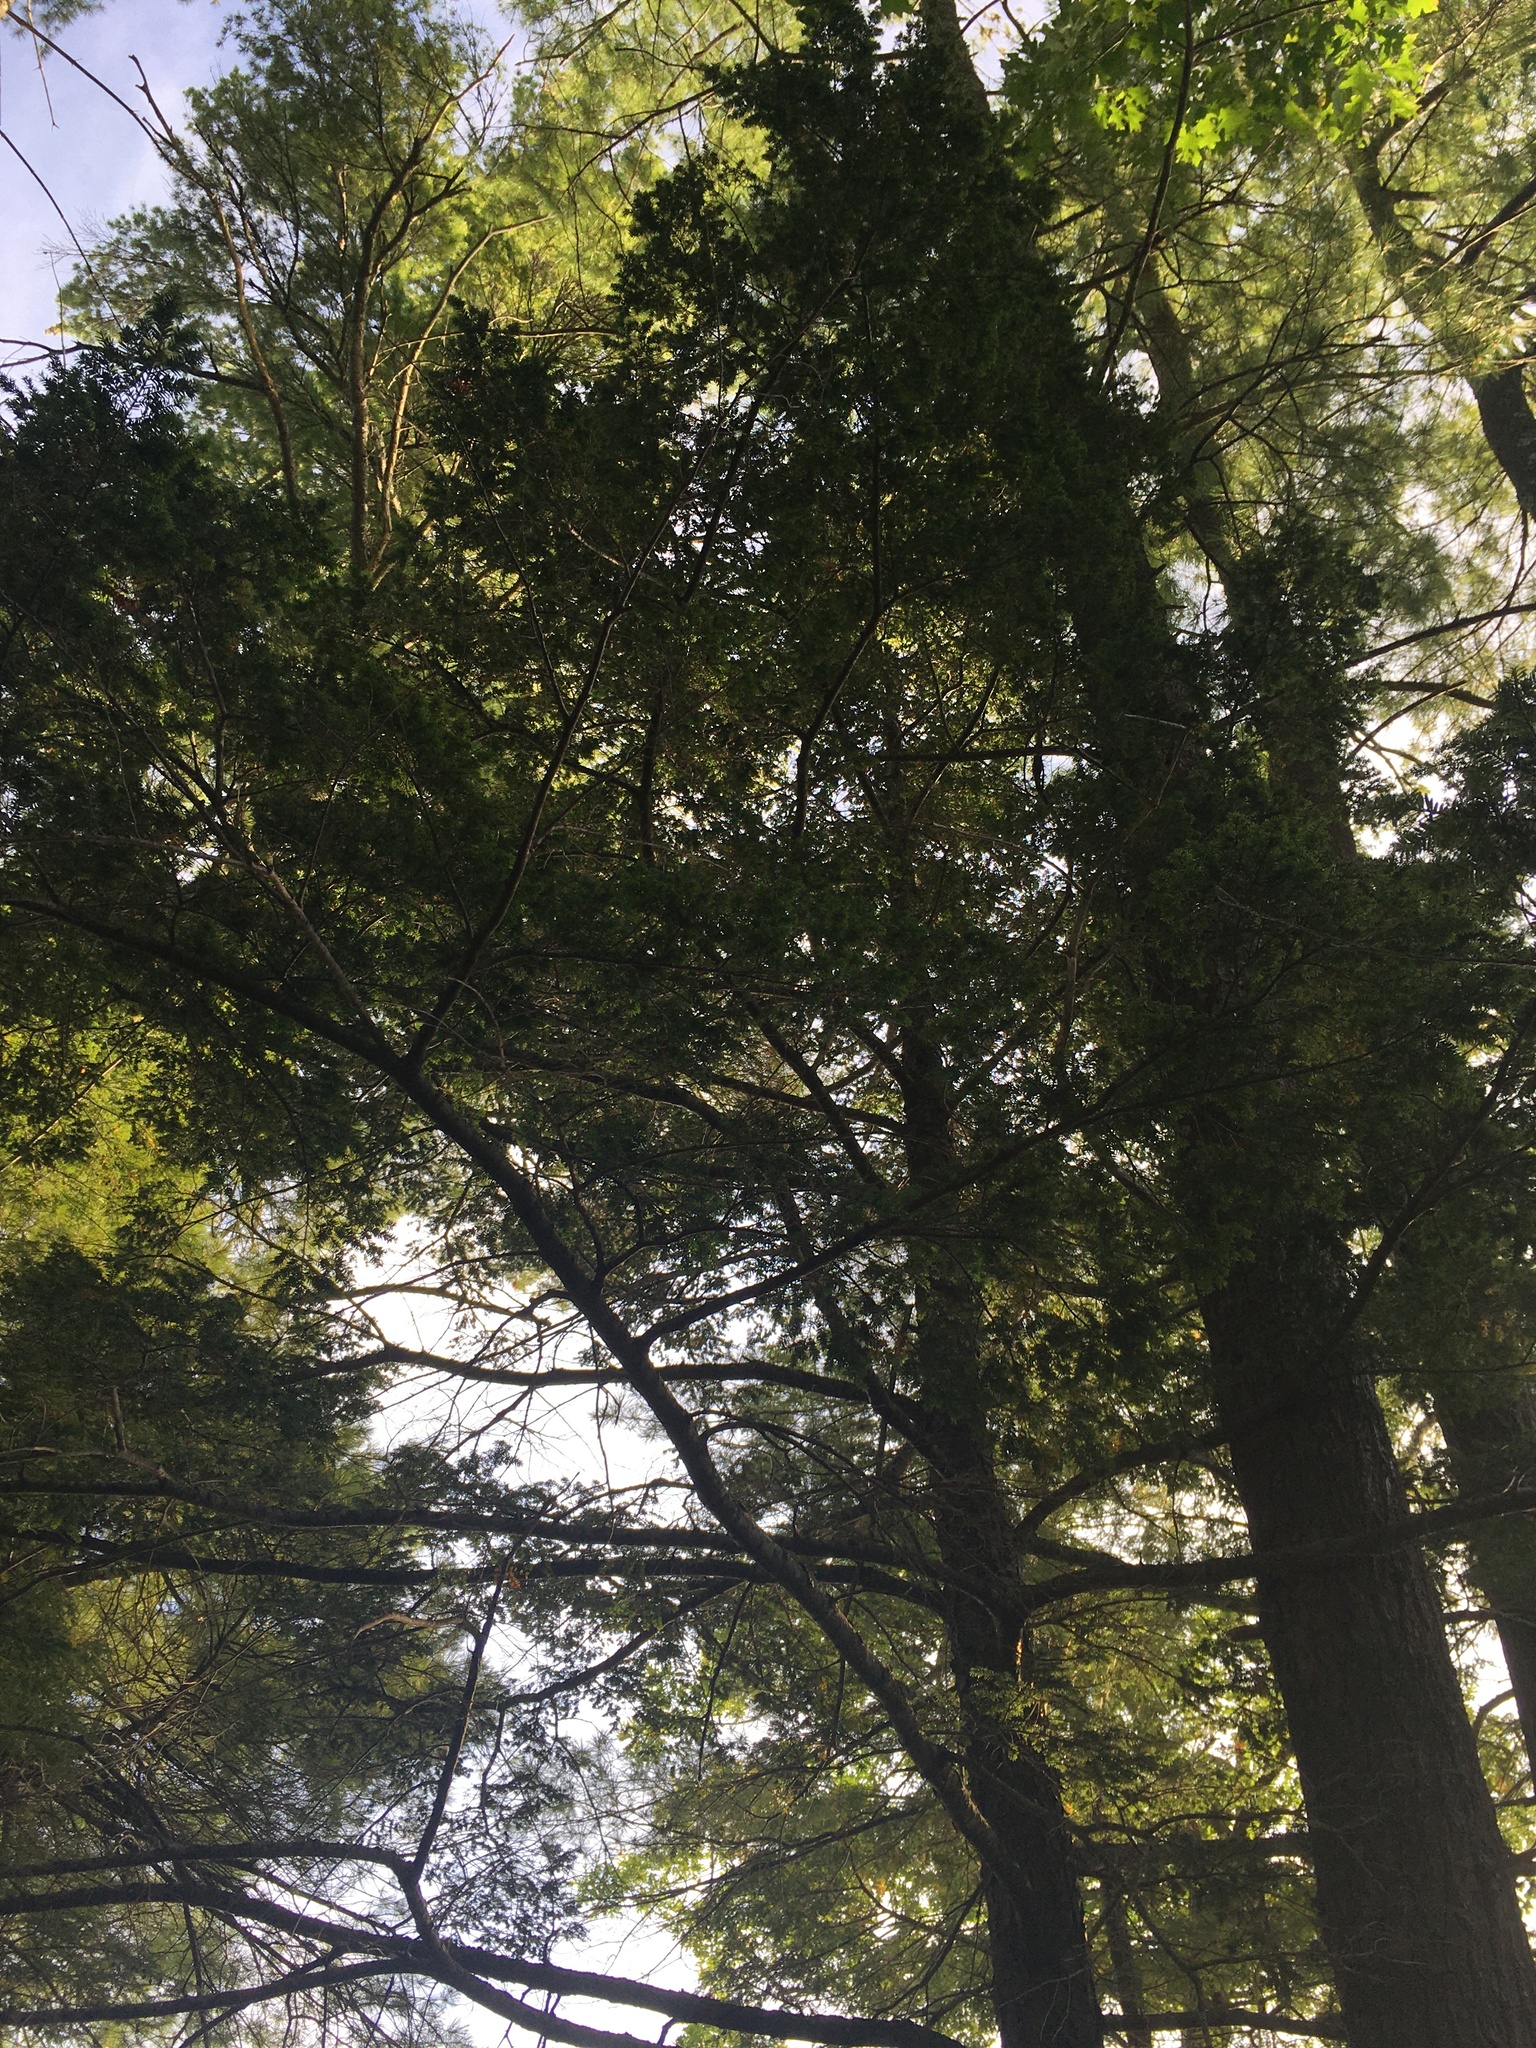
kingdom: Plantae
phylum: Tracheophyta
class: Pinopsida
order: Pinales
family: Pinaceae
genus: Tsuga
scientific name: Tsuga canadensis
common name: Eastern hemlock
